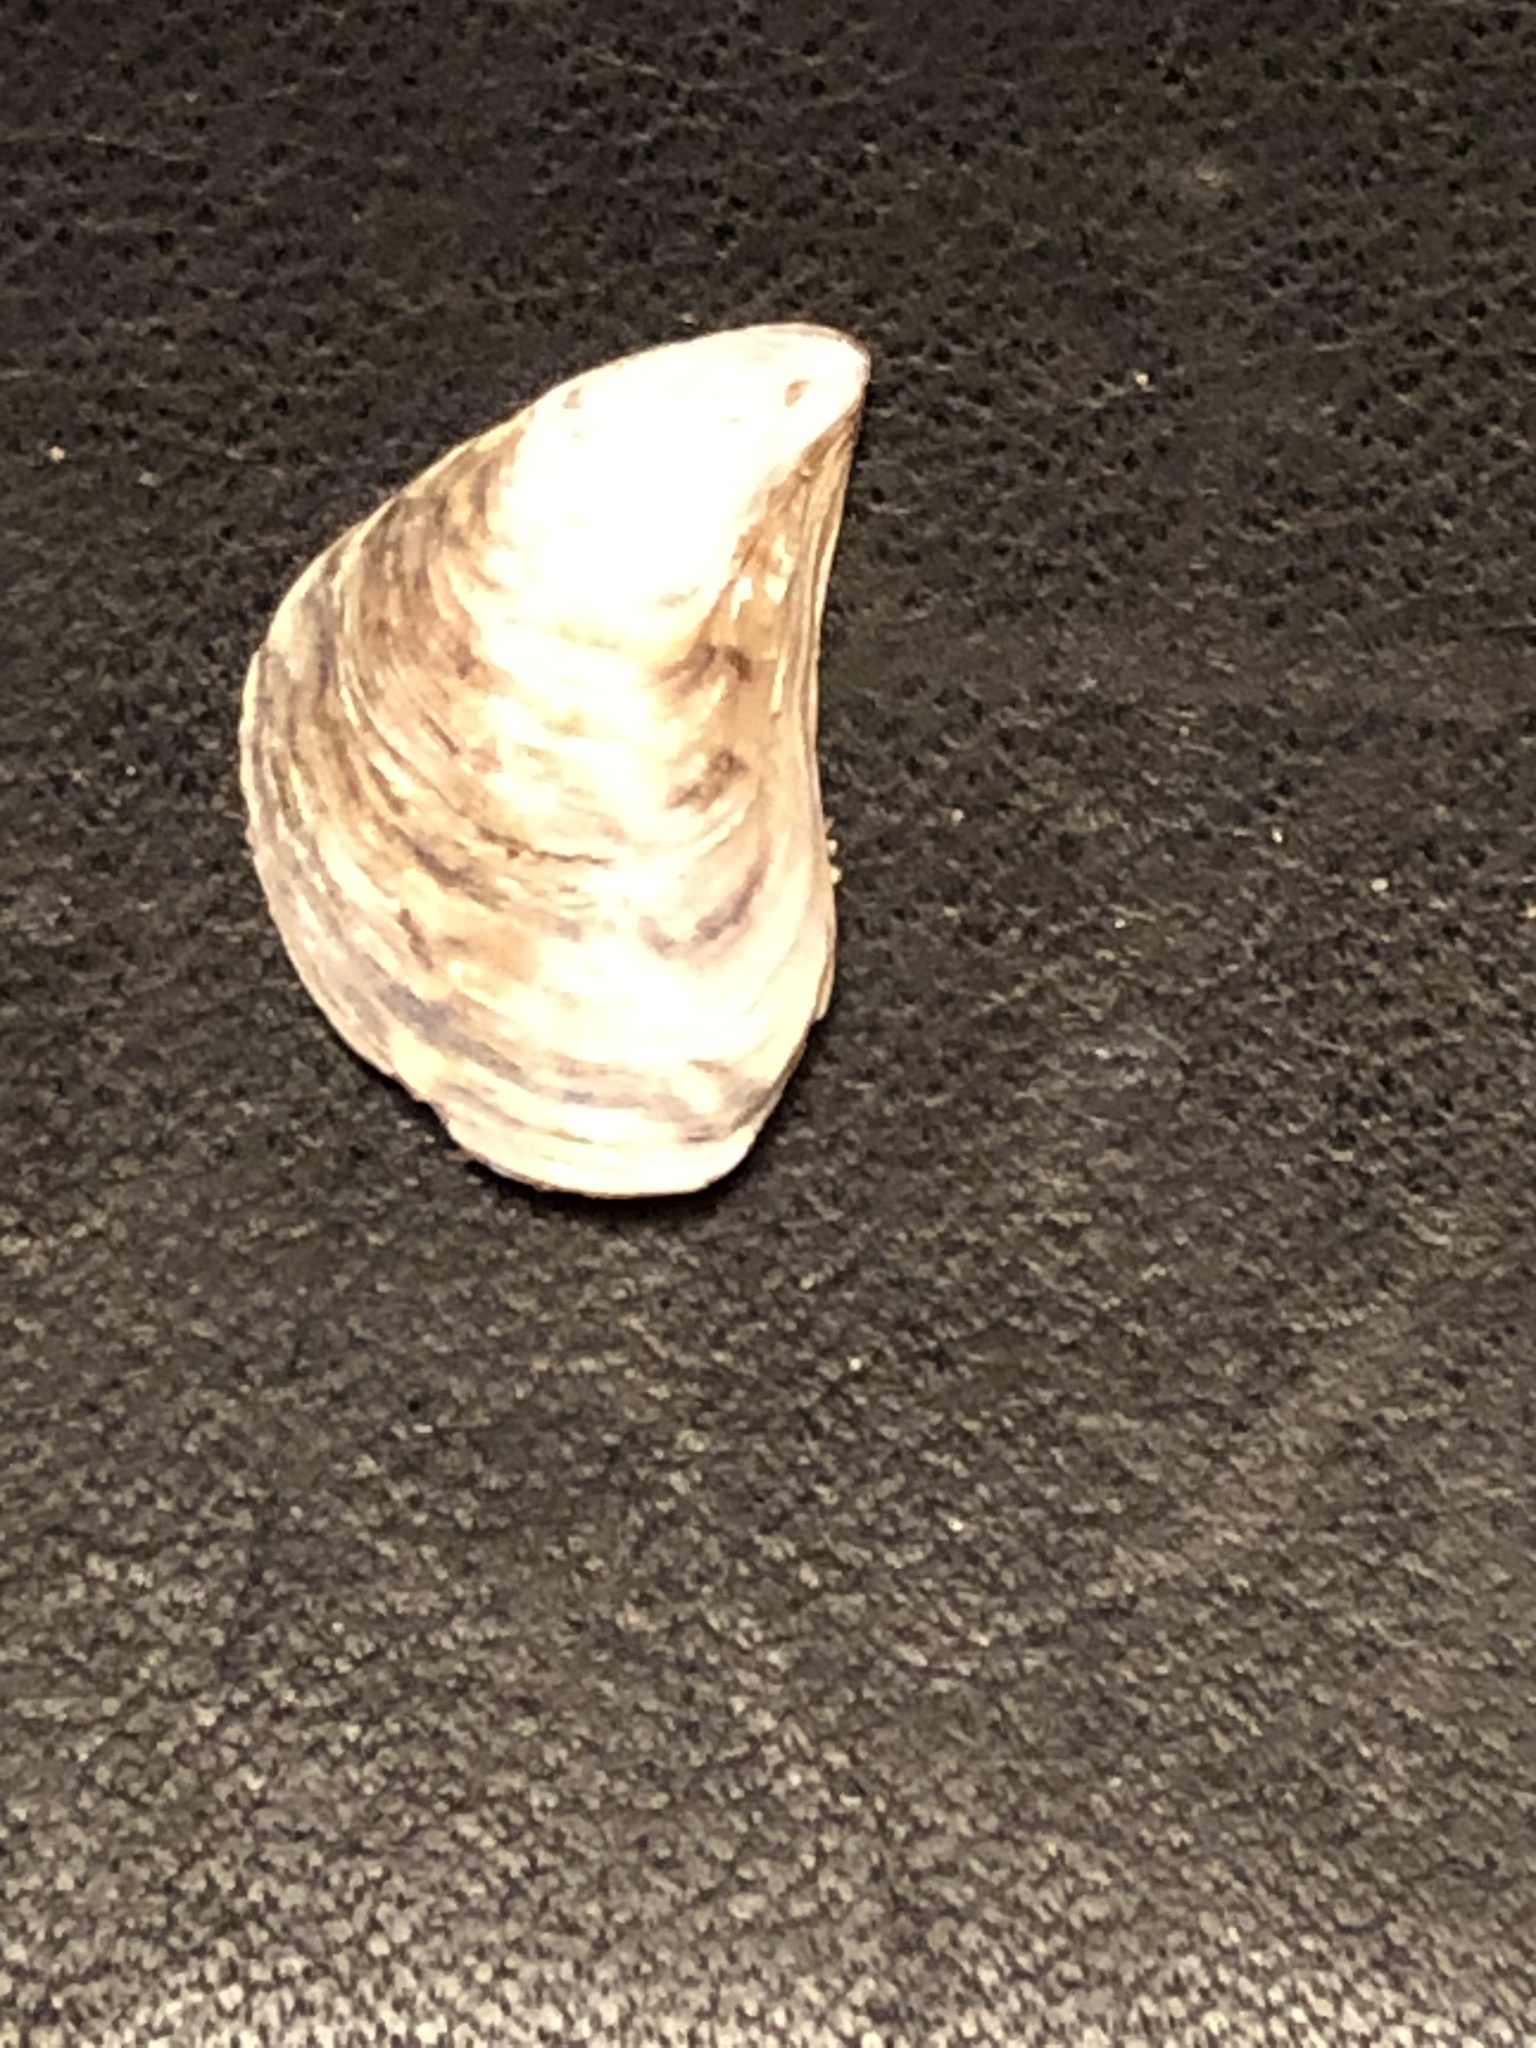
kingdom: Animalia
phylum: Mollusca
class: Bivalvia
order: Myida
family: Dreissenidae
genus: Dreissena
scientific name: Dreissena bugensis
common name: Quagga mussel
